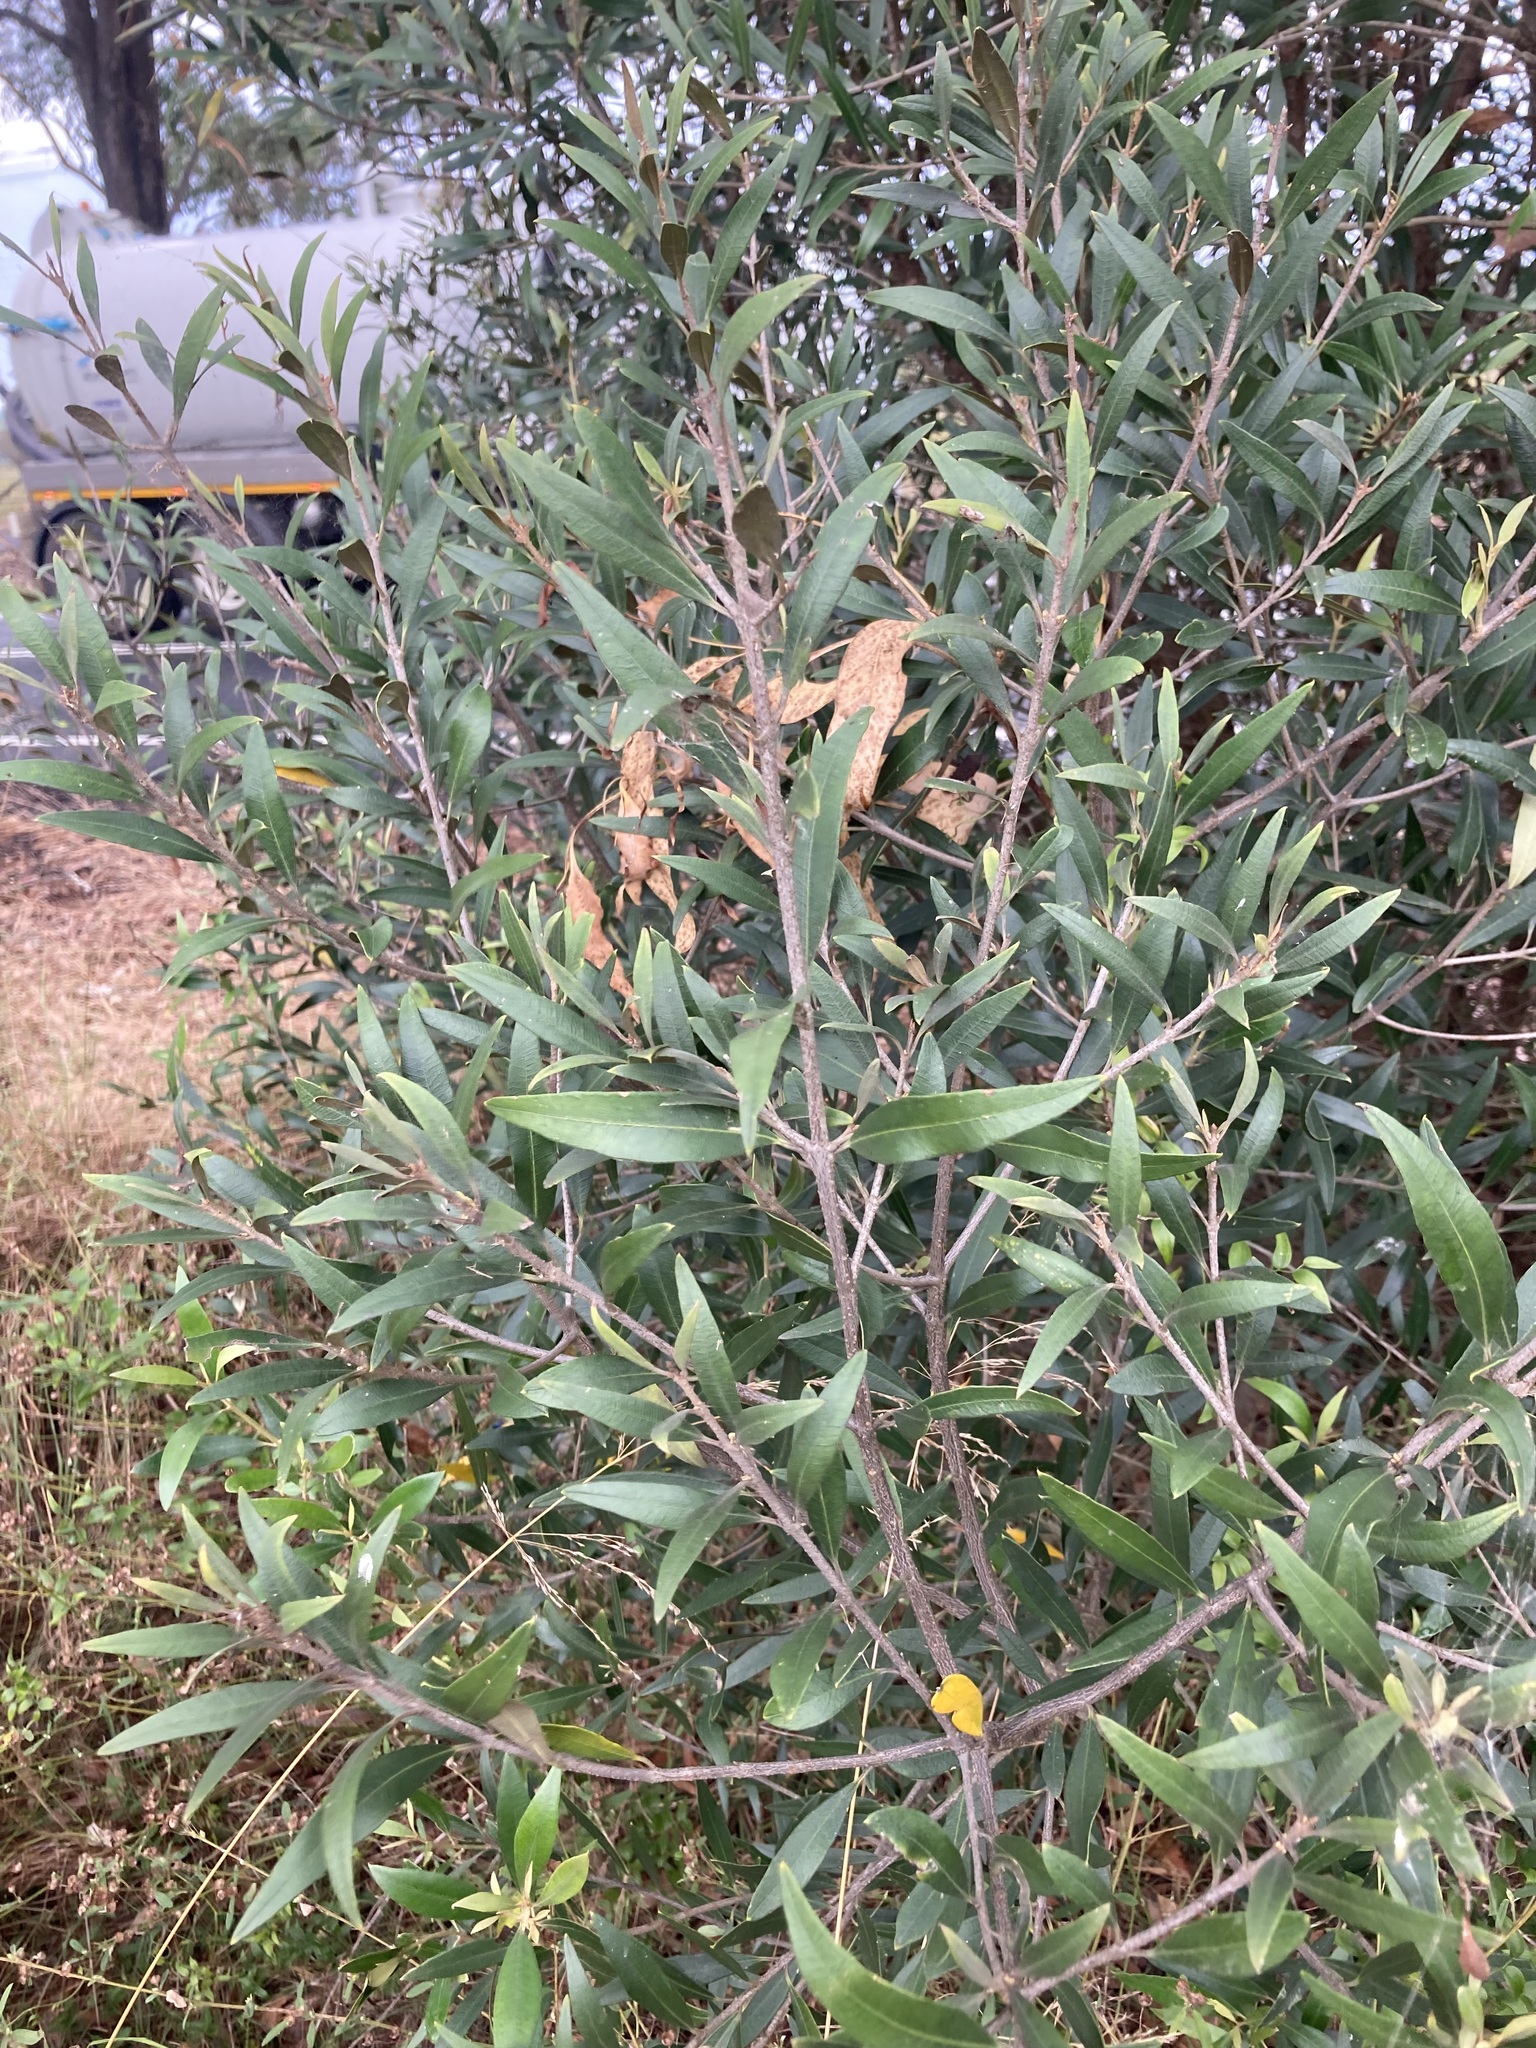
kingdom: Plantae
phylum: Tracheophyta
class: Magnoliopsida
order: Lamiales
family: Oleaceae
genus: Olea
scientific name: Olea europaea
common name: Olive
